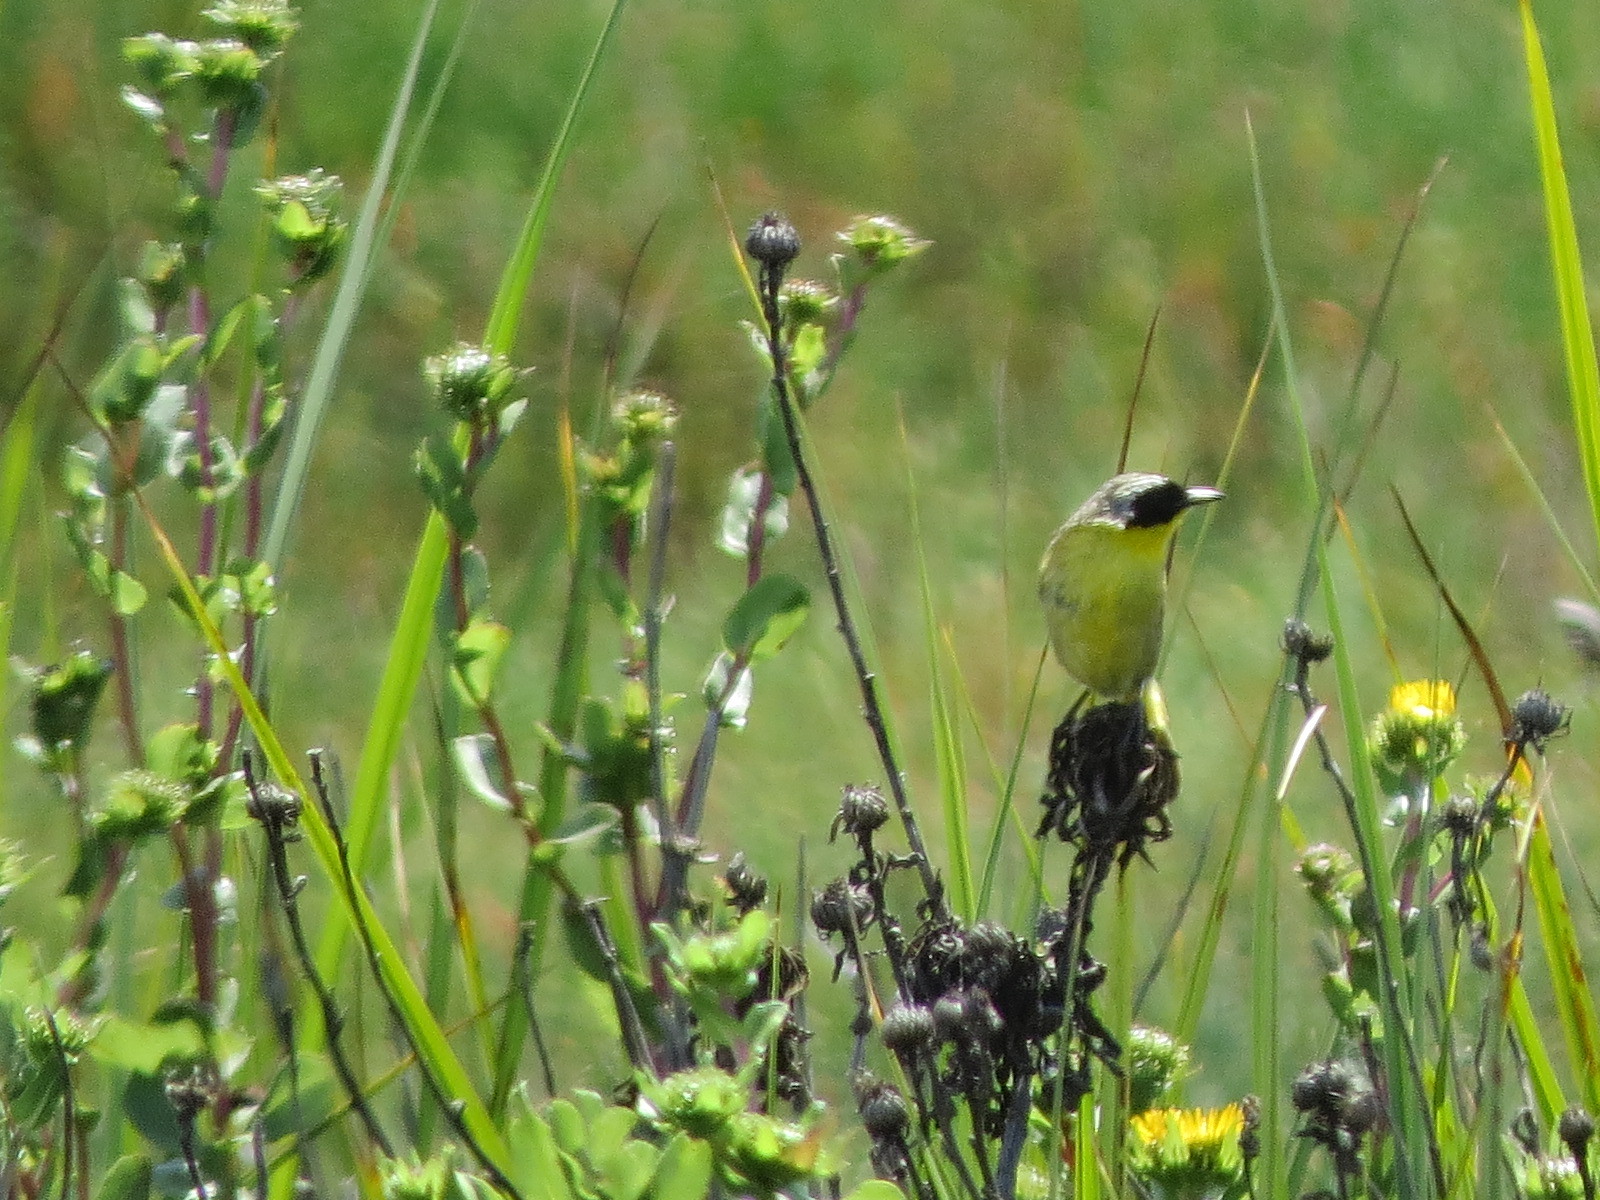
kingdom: Animalia
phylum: Chordata
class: Aves
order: Passeriformes
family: Parulidae
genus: Geothlypis
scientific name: Geothlypis trichas
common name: Common yellowthroat
